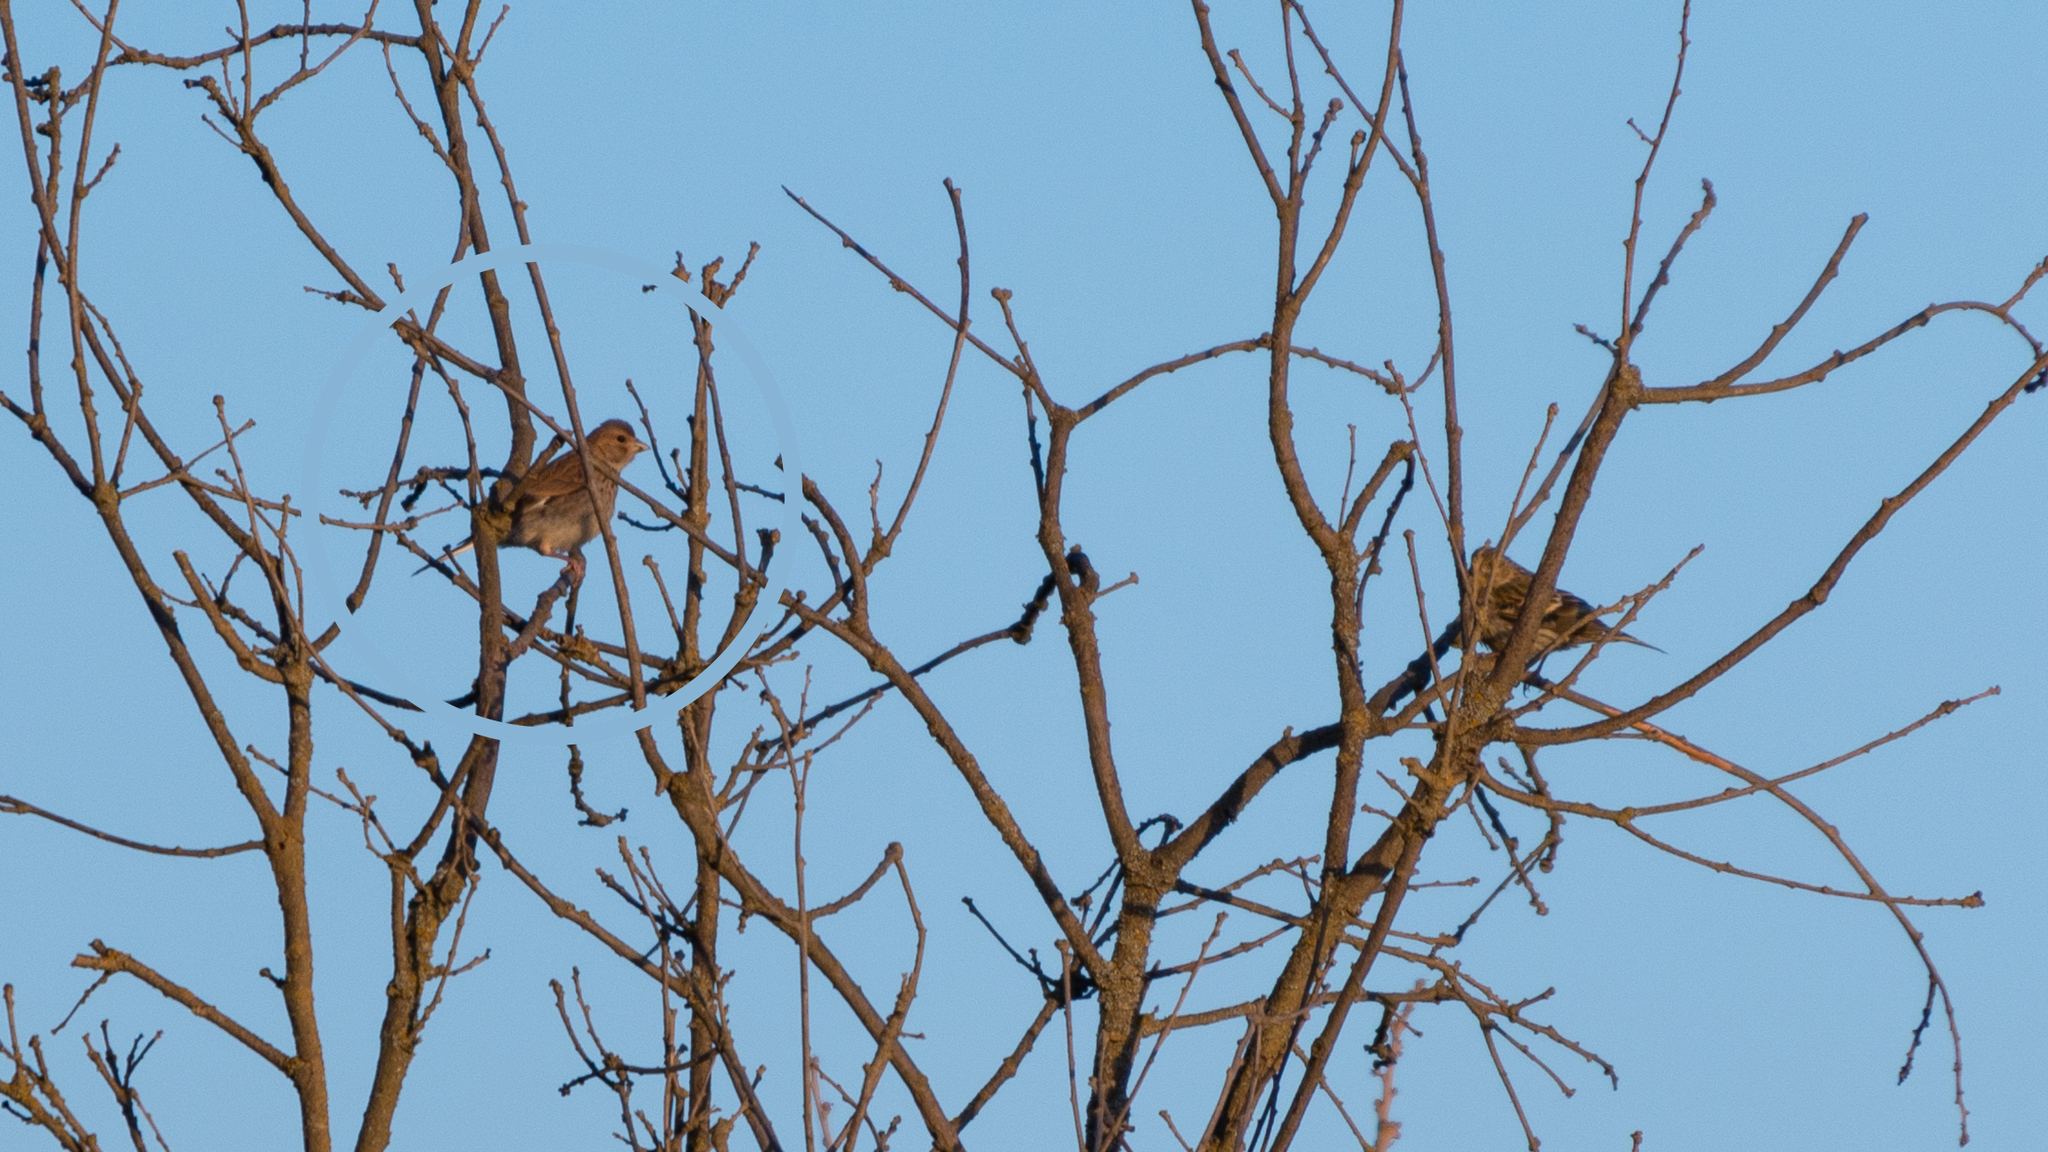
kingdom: Animalia
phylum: Chordata
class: Aves
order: Passeriformes
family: Fringillidae
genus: Linaria
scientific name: Linaria cannabina
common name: Common linnet
